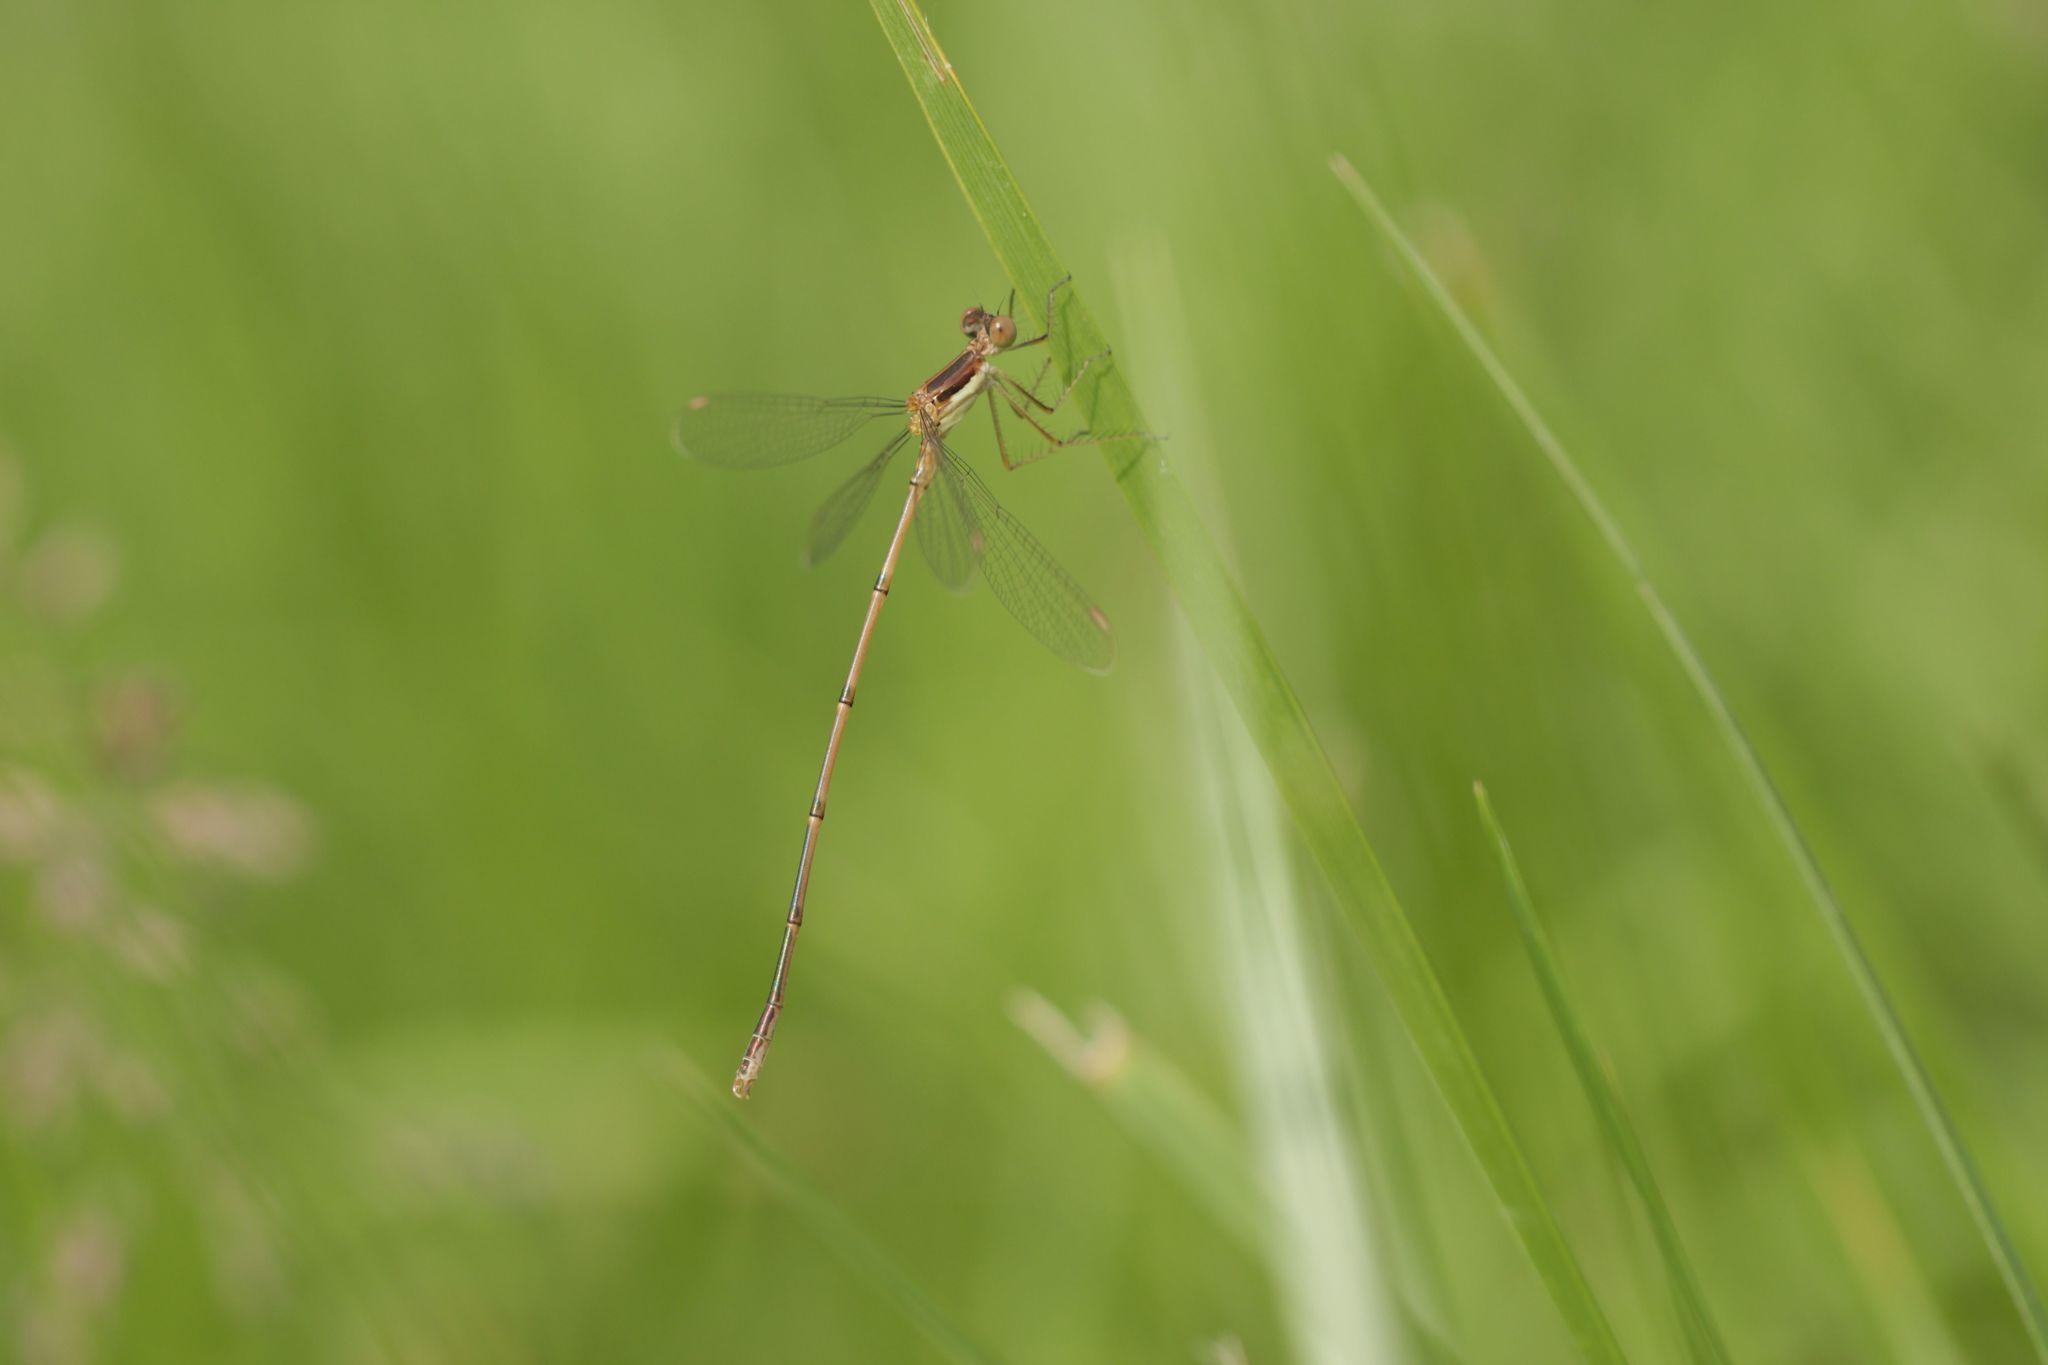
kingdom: Animalia
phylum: Arthropoda
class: Insecta
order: Odonata
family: Lestidae
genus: Lestes
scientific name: Lestes rectangularis
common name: Slender spreadwing
